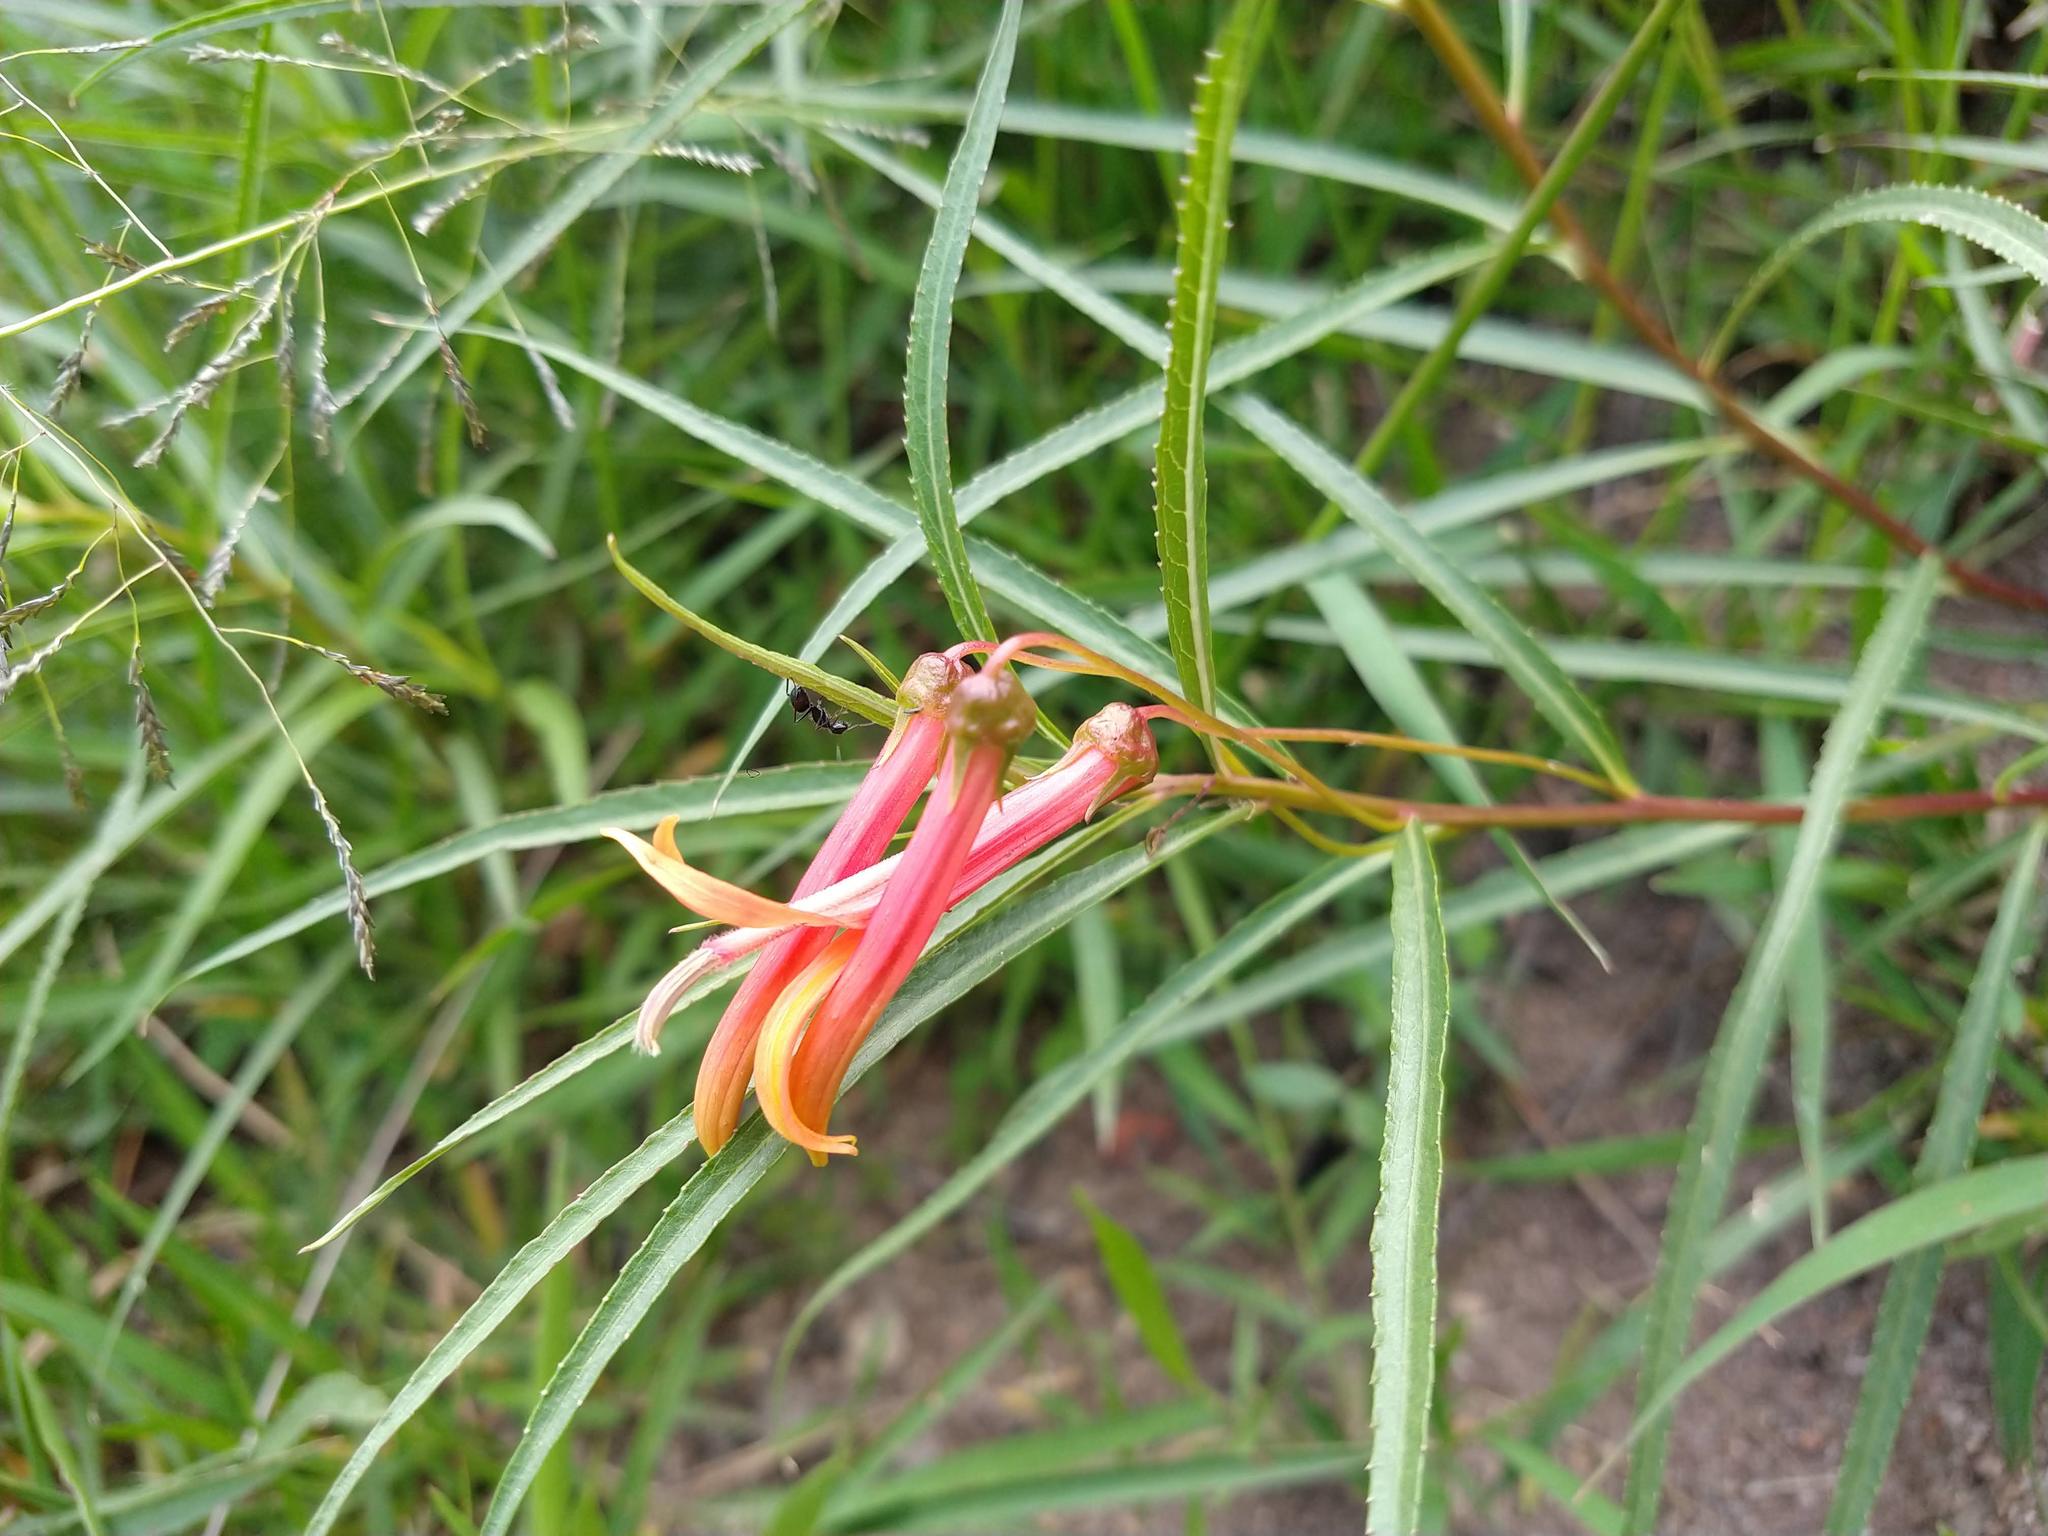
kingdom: Plantae
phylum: Tracheophyta
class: Magnoliopsida
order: Asterales
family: Campanulaceae
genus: Lobelia
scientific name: Lobelia laxiflora
